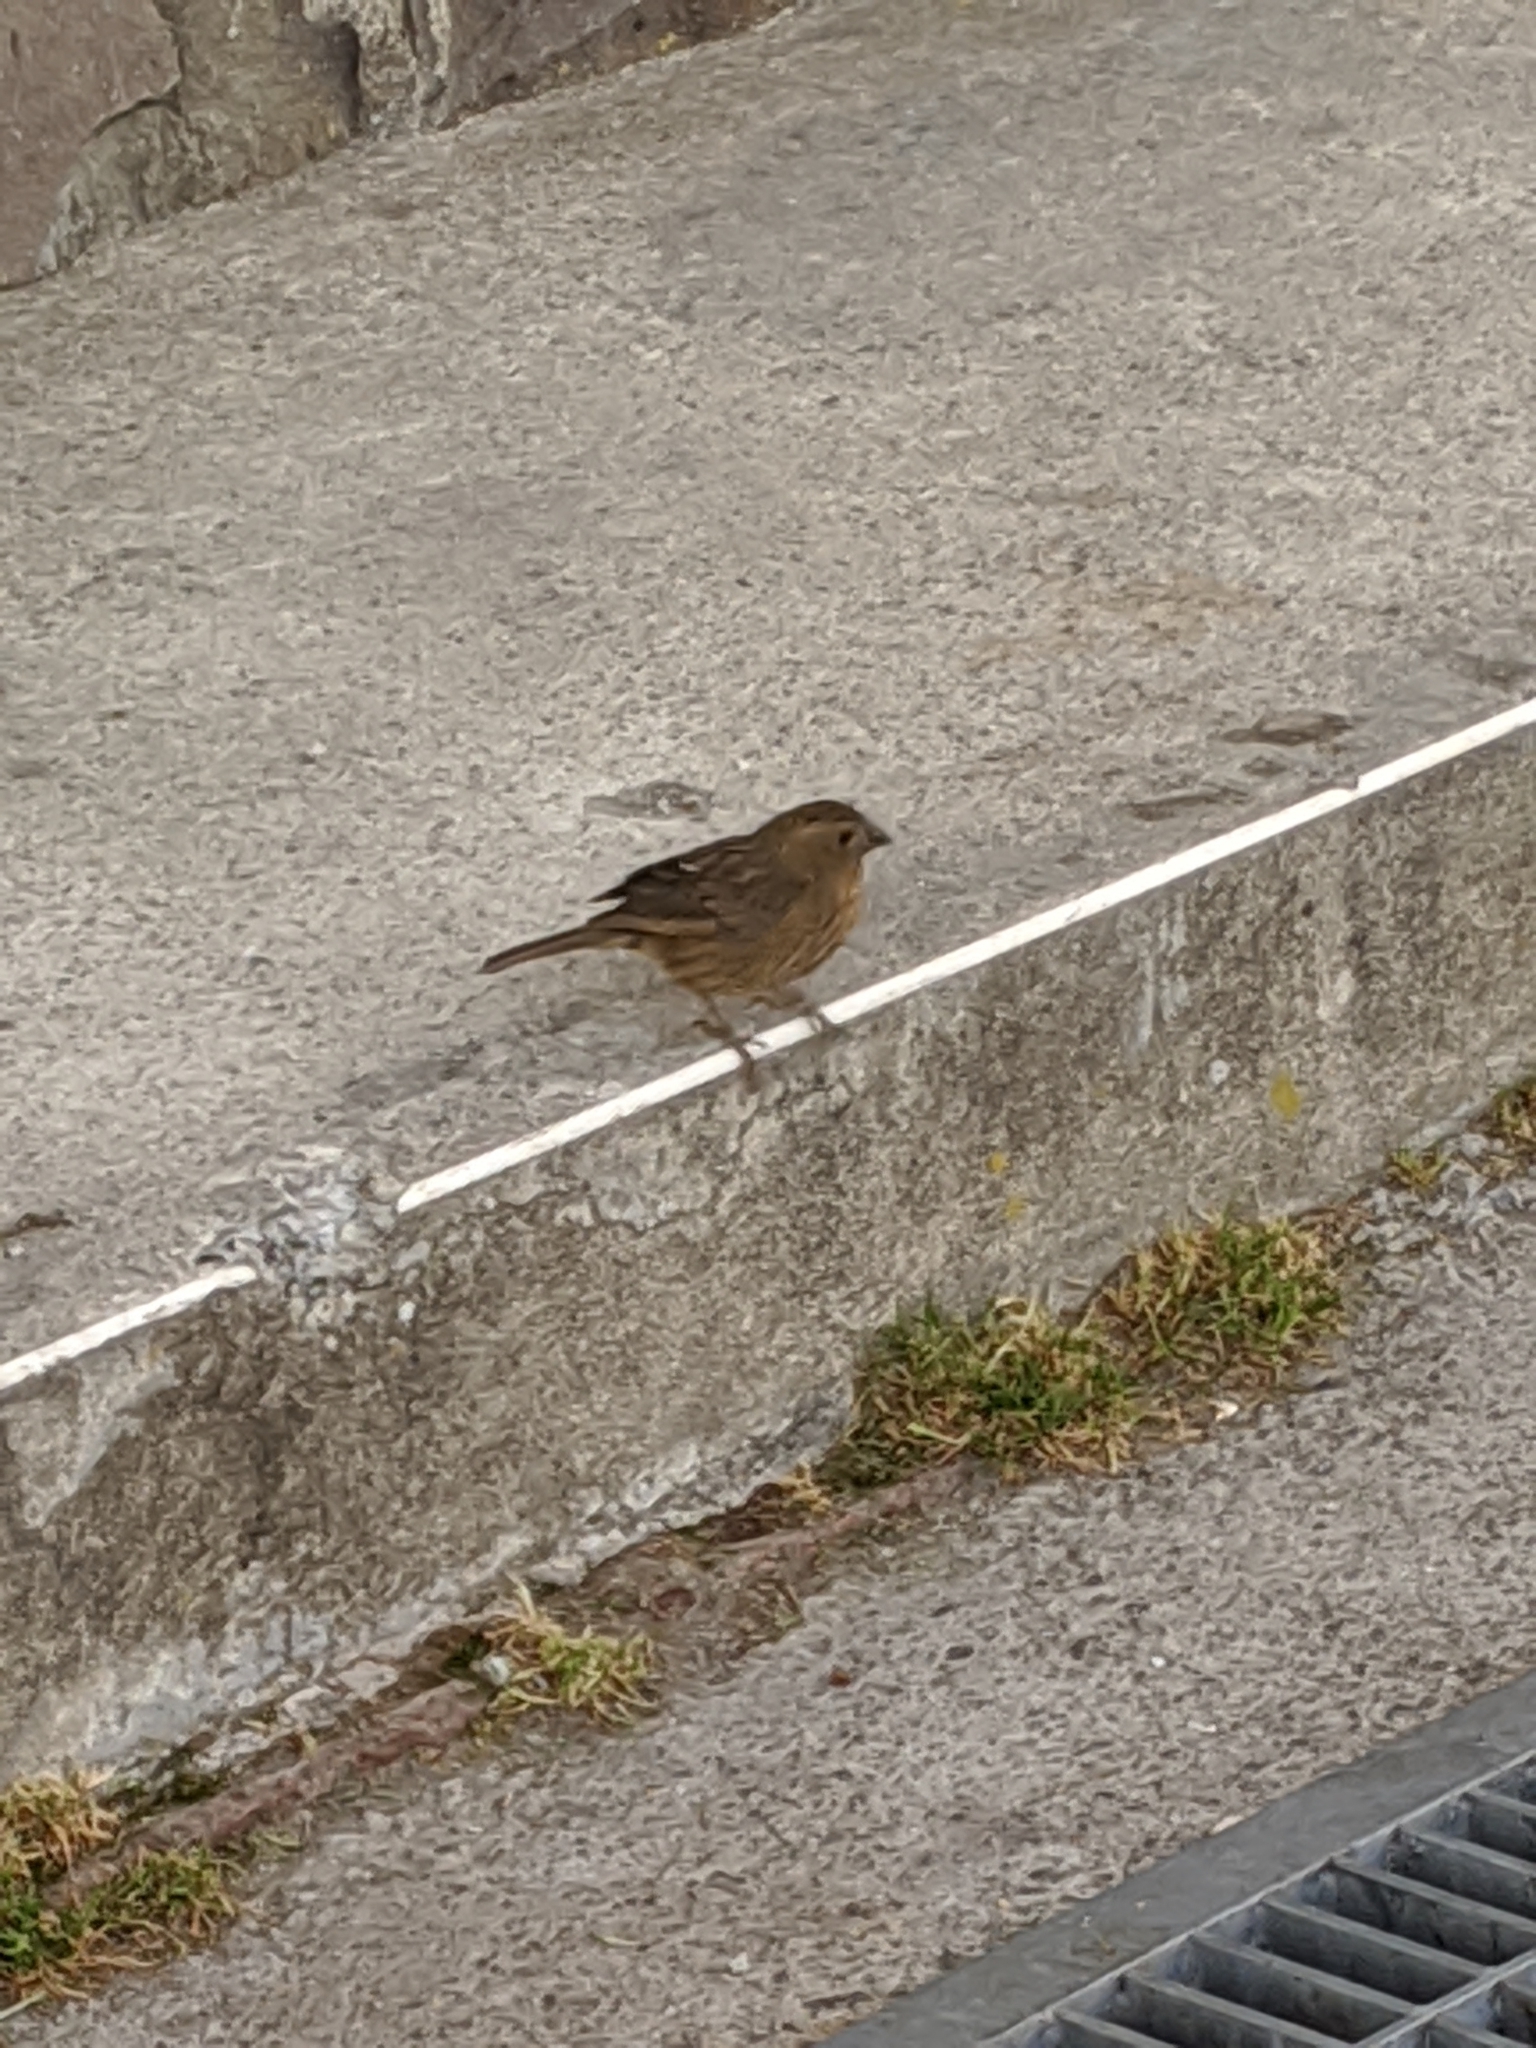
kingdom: Animalia
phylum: Chordata
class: Aves
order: Passeriformes
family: Fringillidae
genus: Carpodacus
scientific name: Carpodacus formosanus
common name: Taiwan rosefinch
